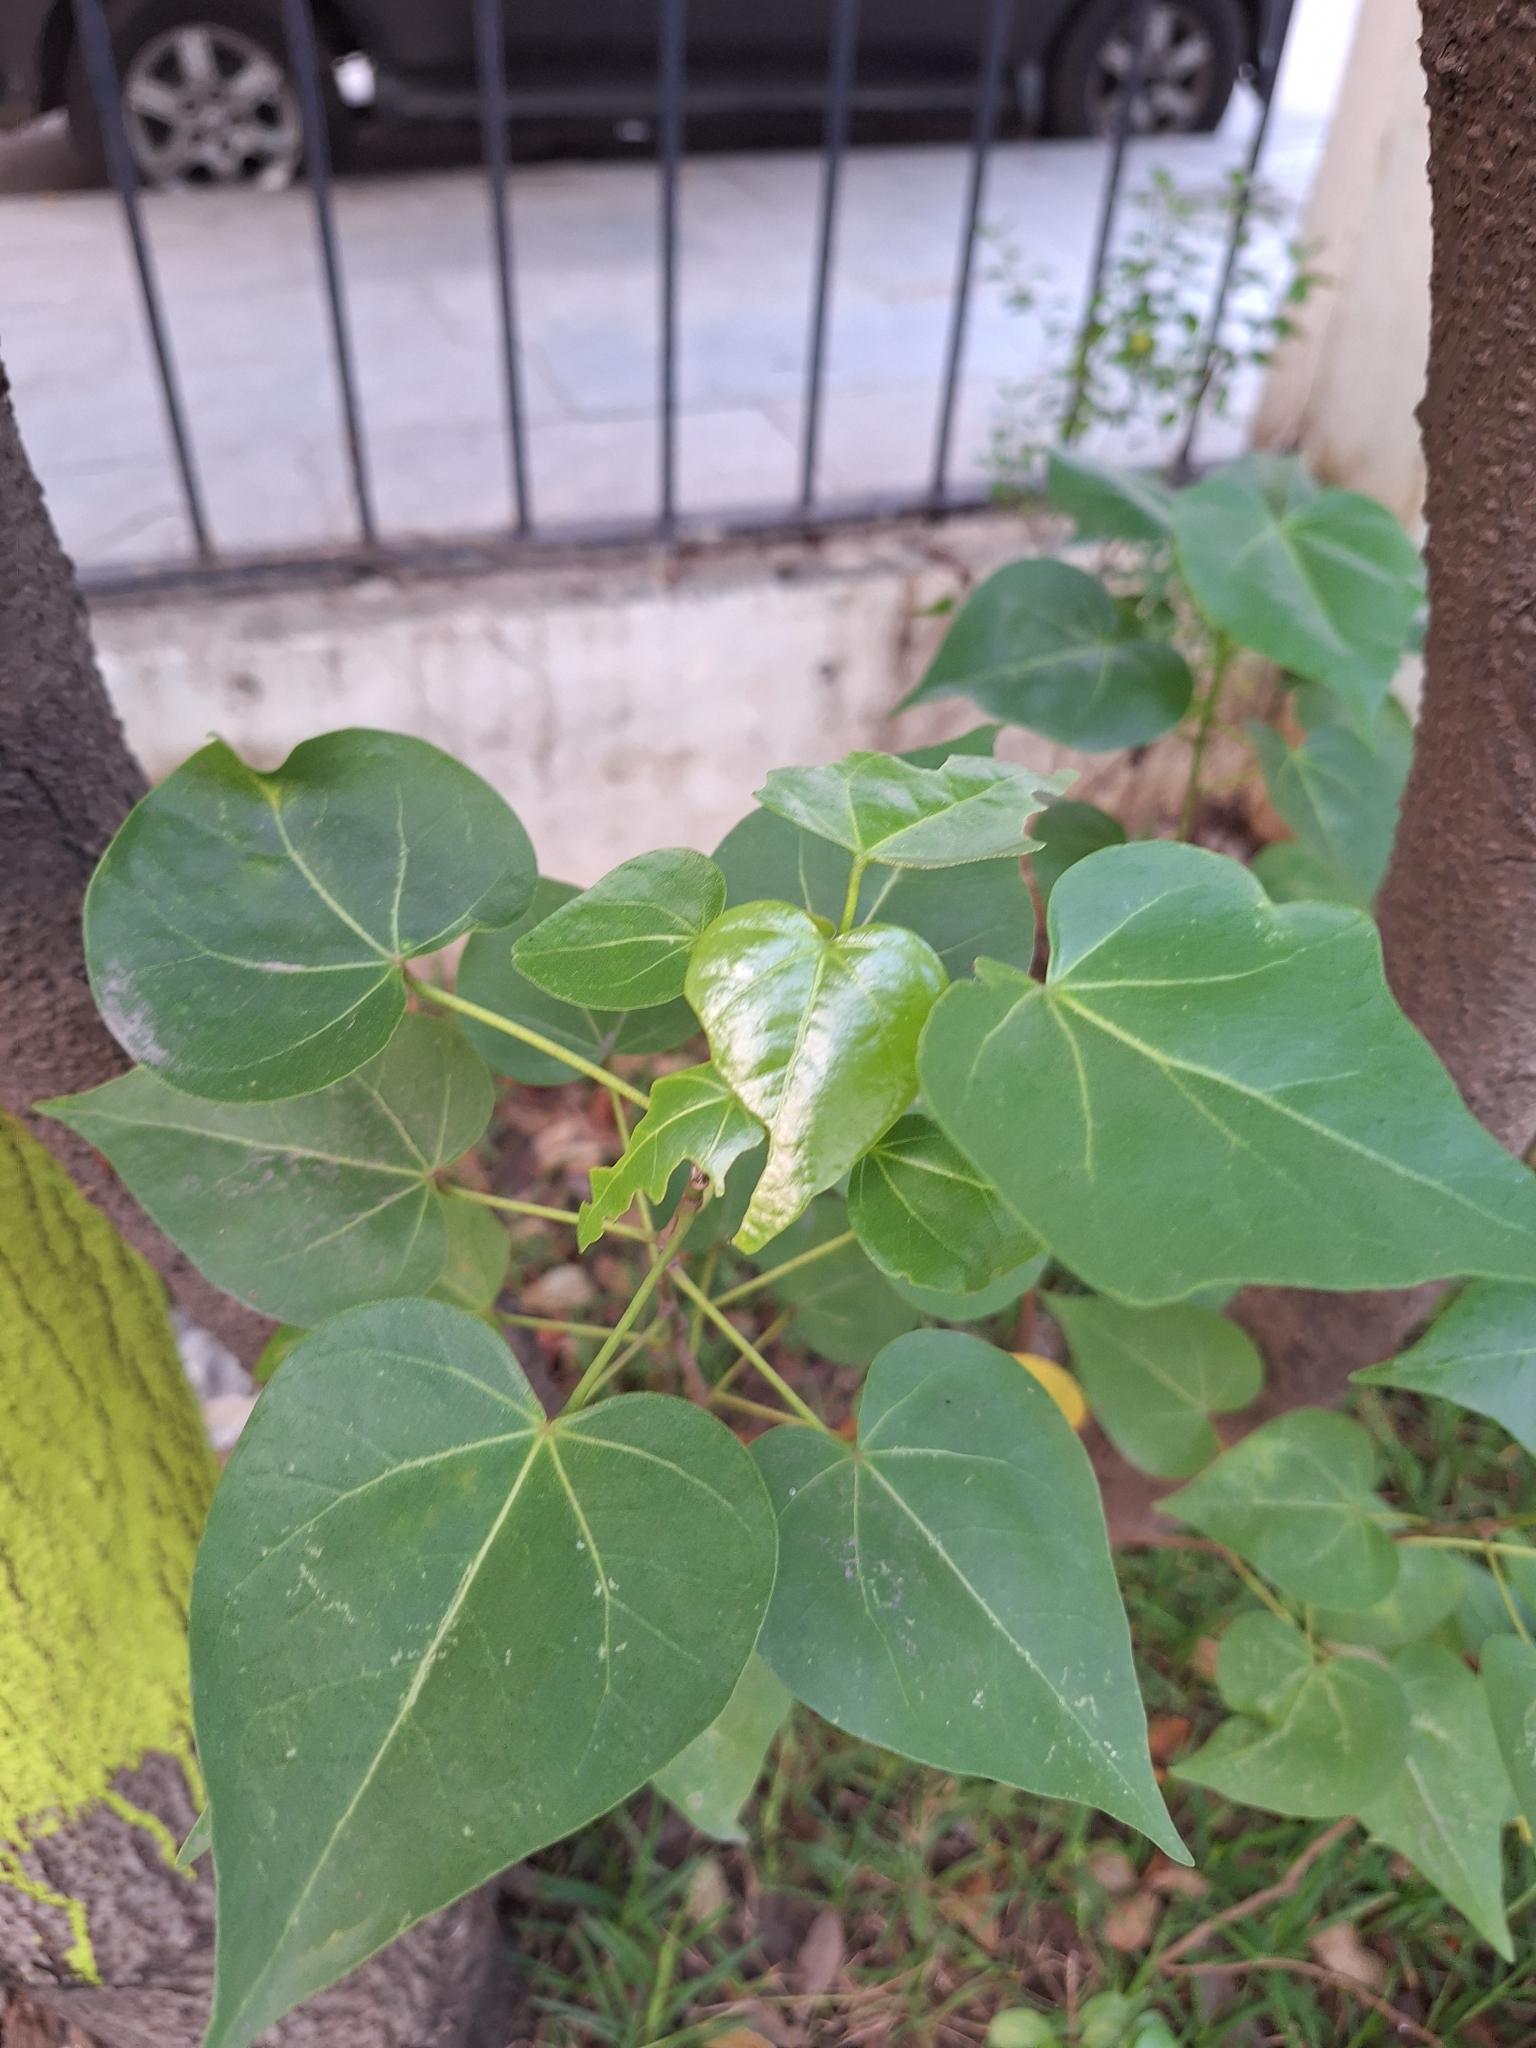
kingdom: Plantae
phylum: Tracheophyta
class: Magnoliopsida
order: Malvales
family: Malvaceae
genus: Thespesia
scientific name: Thespesia populnea
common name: Seaside mahoe
